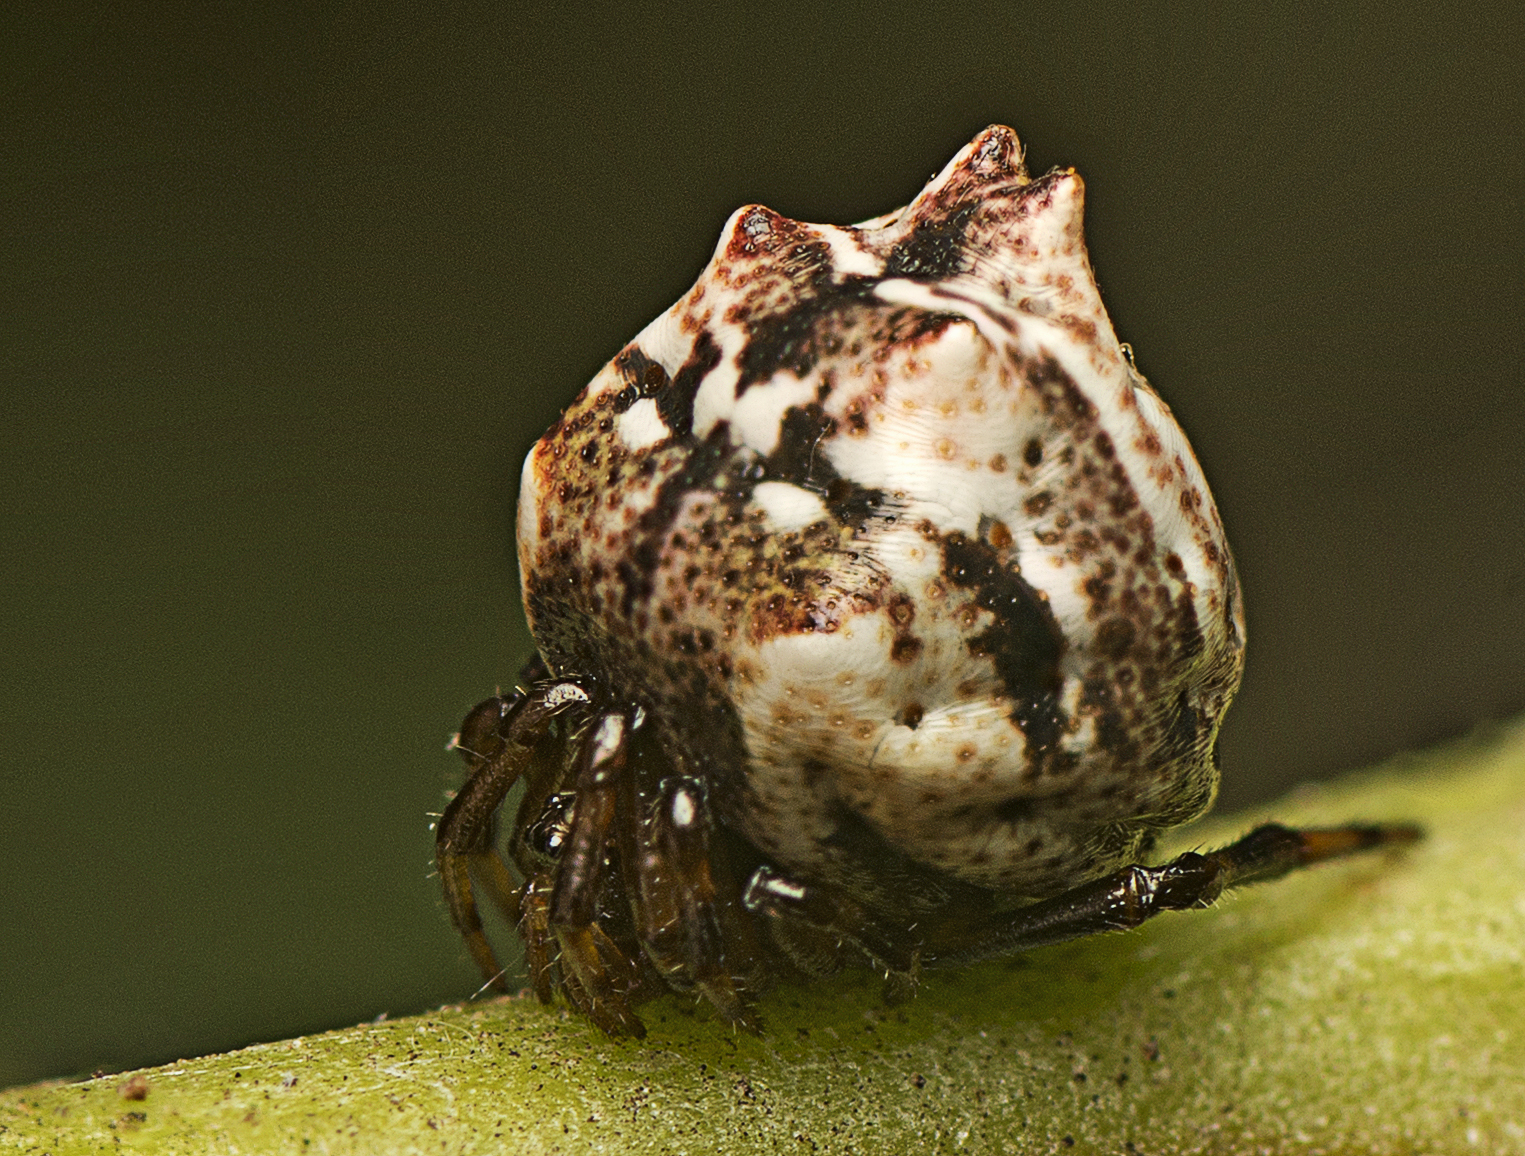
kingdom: Animalia
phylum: Arthropoda
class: Arachnida
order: Araneae
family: Theridiidae
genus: Phoroncidia
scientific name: Phoroncidia sextuberculata
